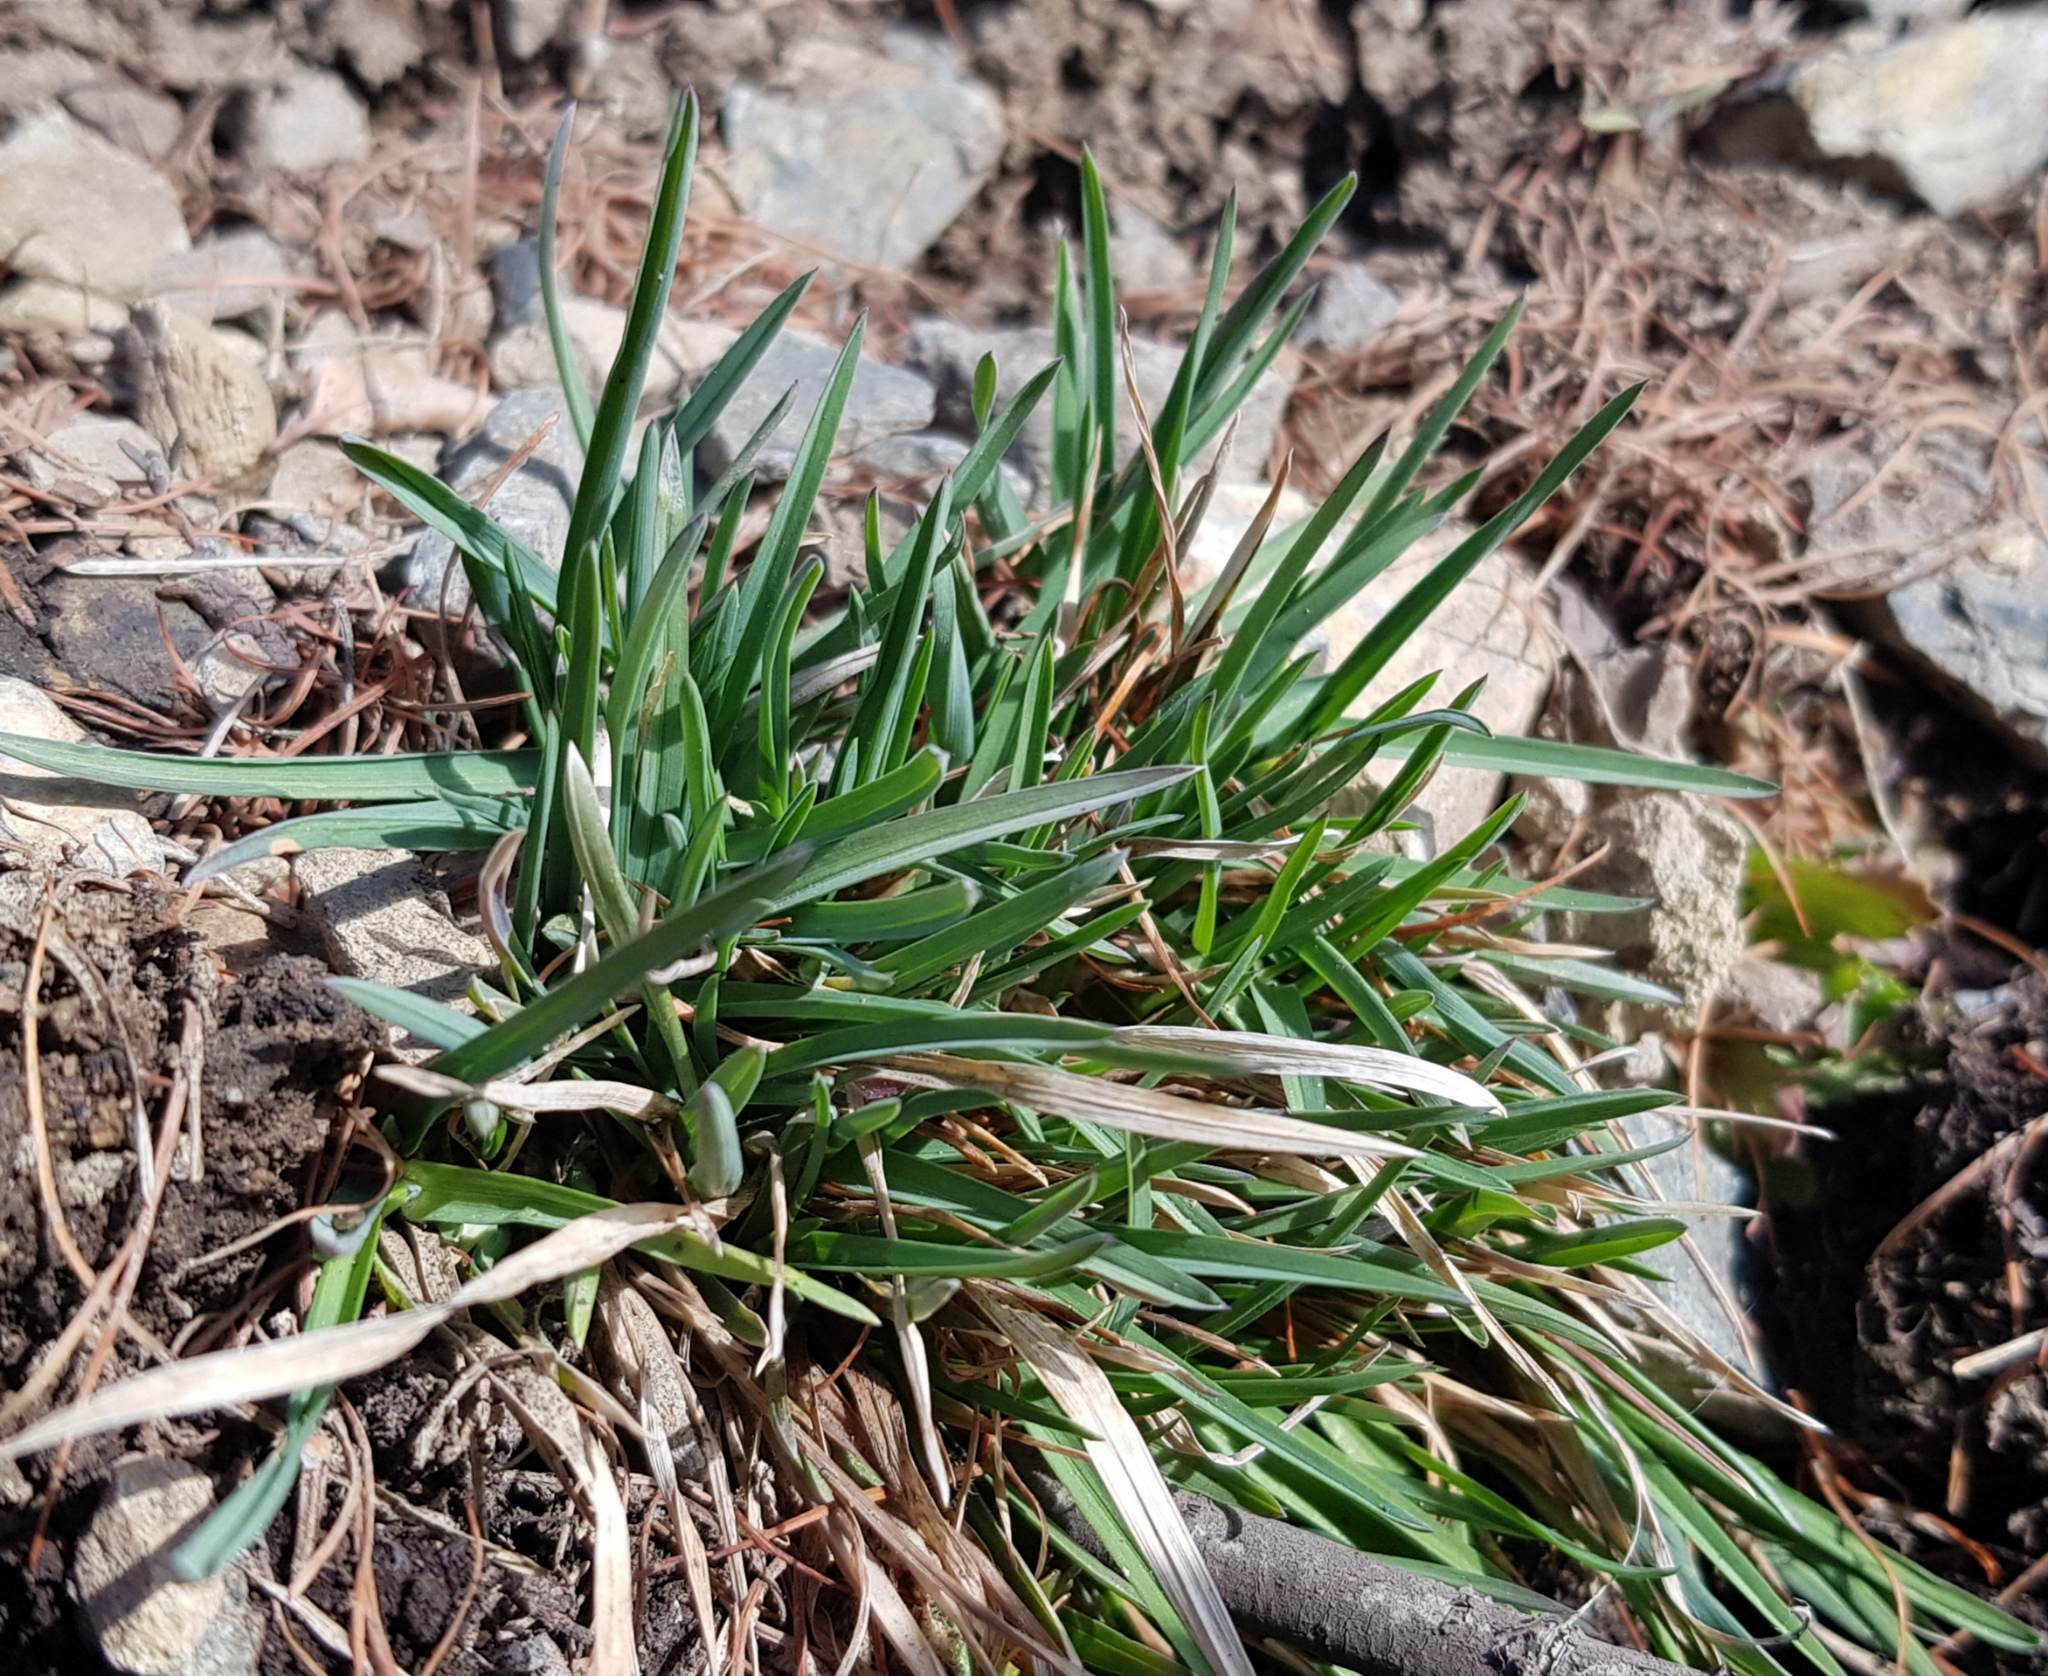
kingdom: Plantae
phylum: Tracheophyta
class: Liliopsida
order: Poales
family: Poaceae
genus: Cleistogenes
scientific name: Cleistogenes squarrosa
